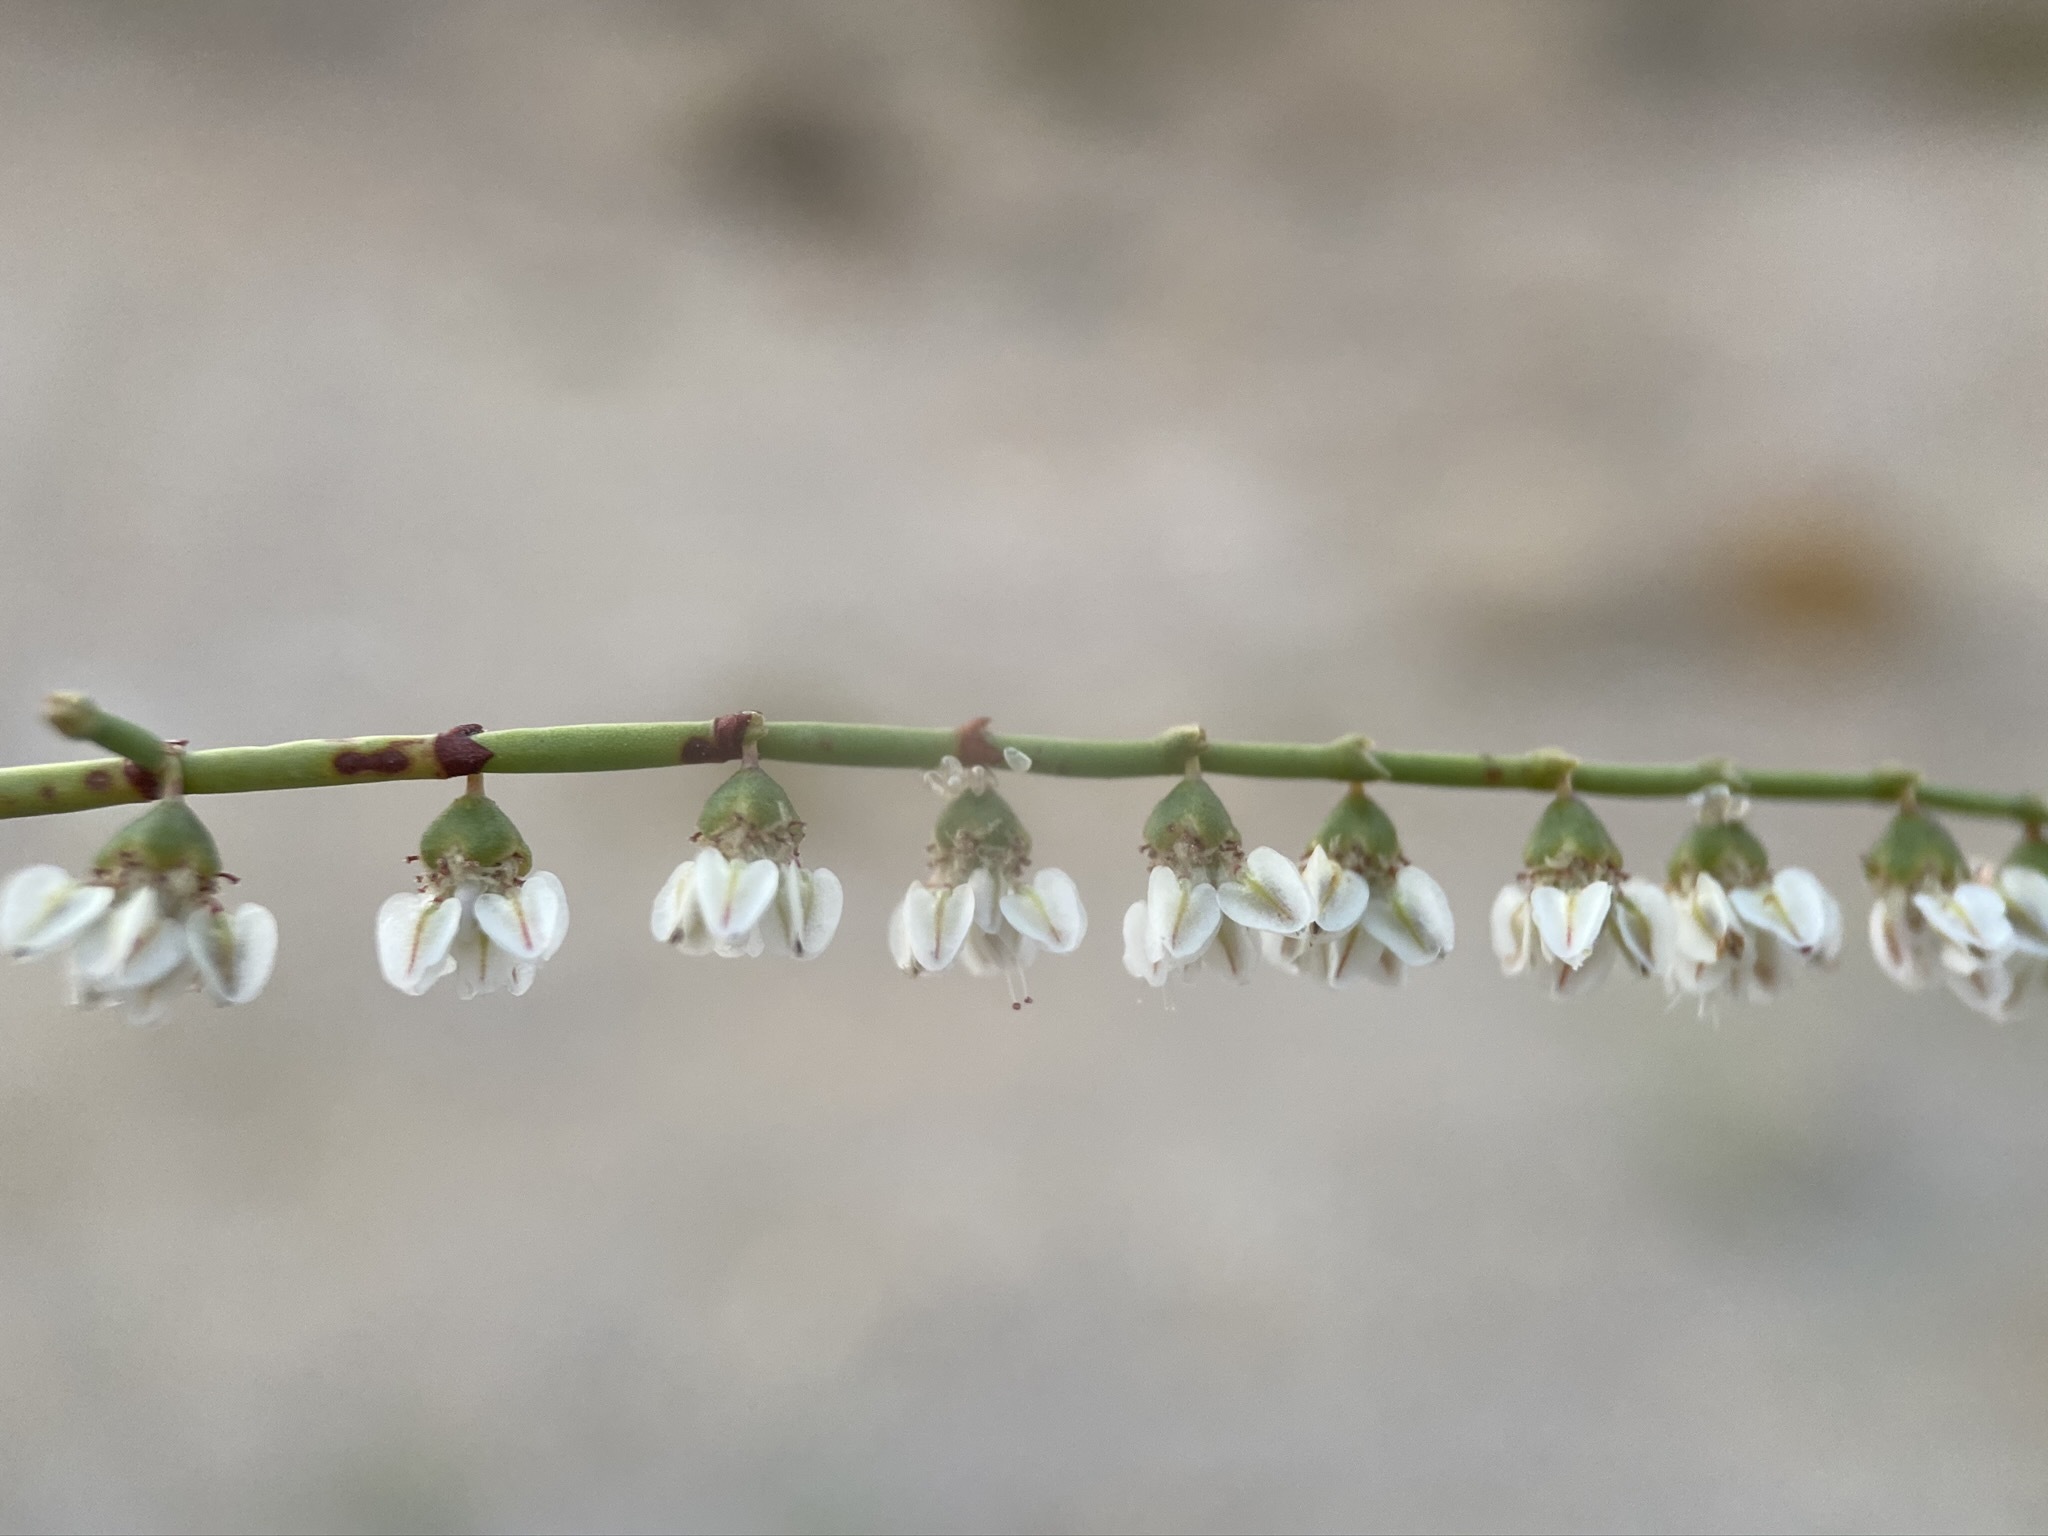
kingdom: Plantae
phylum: Tracheophyta
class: Magnoliopsida
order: Caryophyllales
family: Polygonaceae
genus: Eriogonum
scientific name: Eriogonum deflexum
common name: Skeleton-weed
